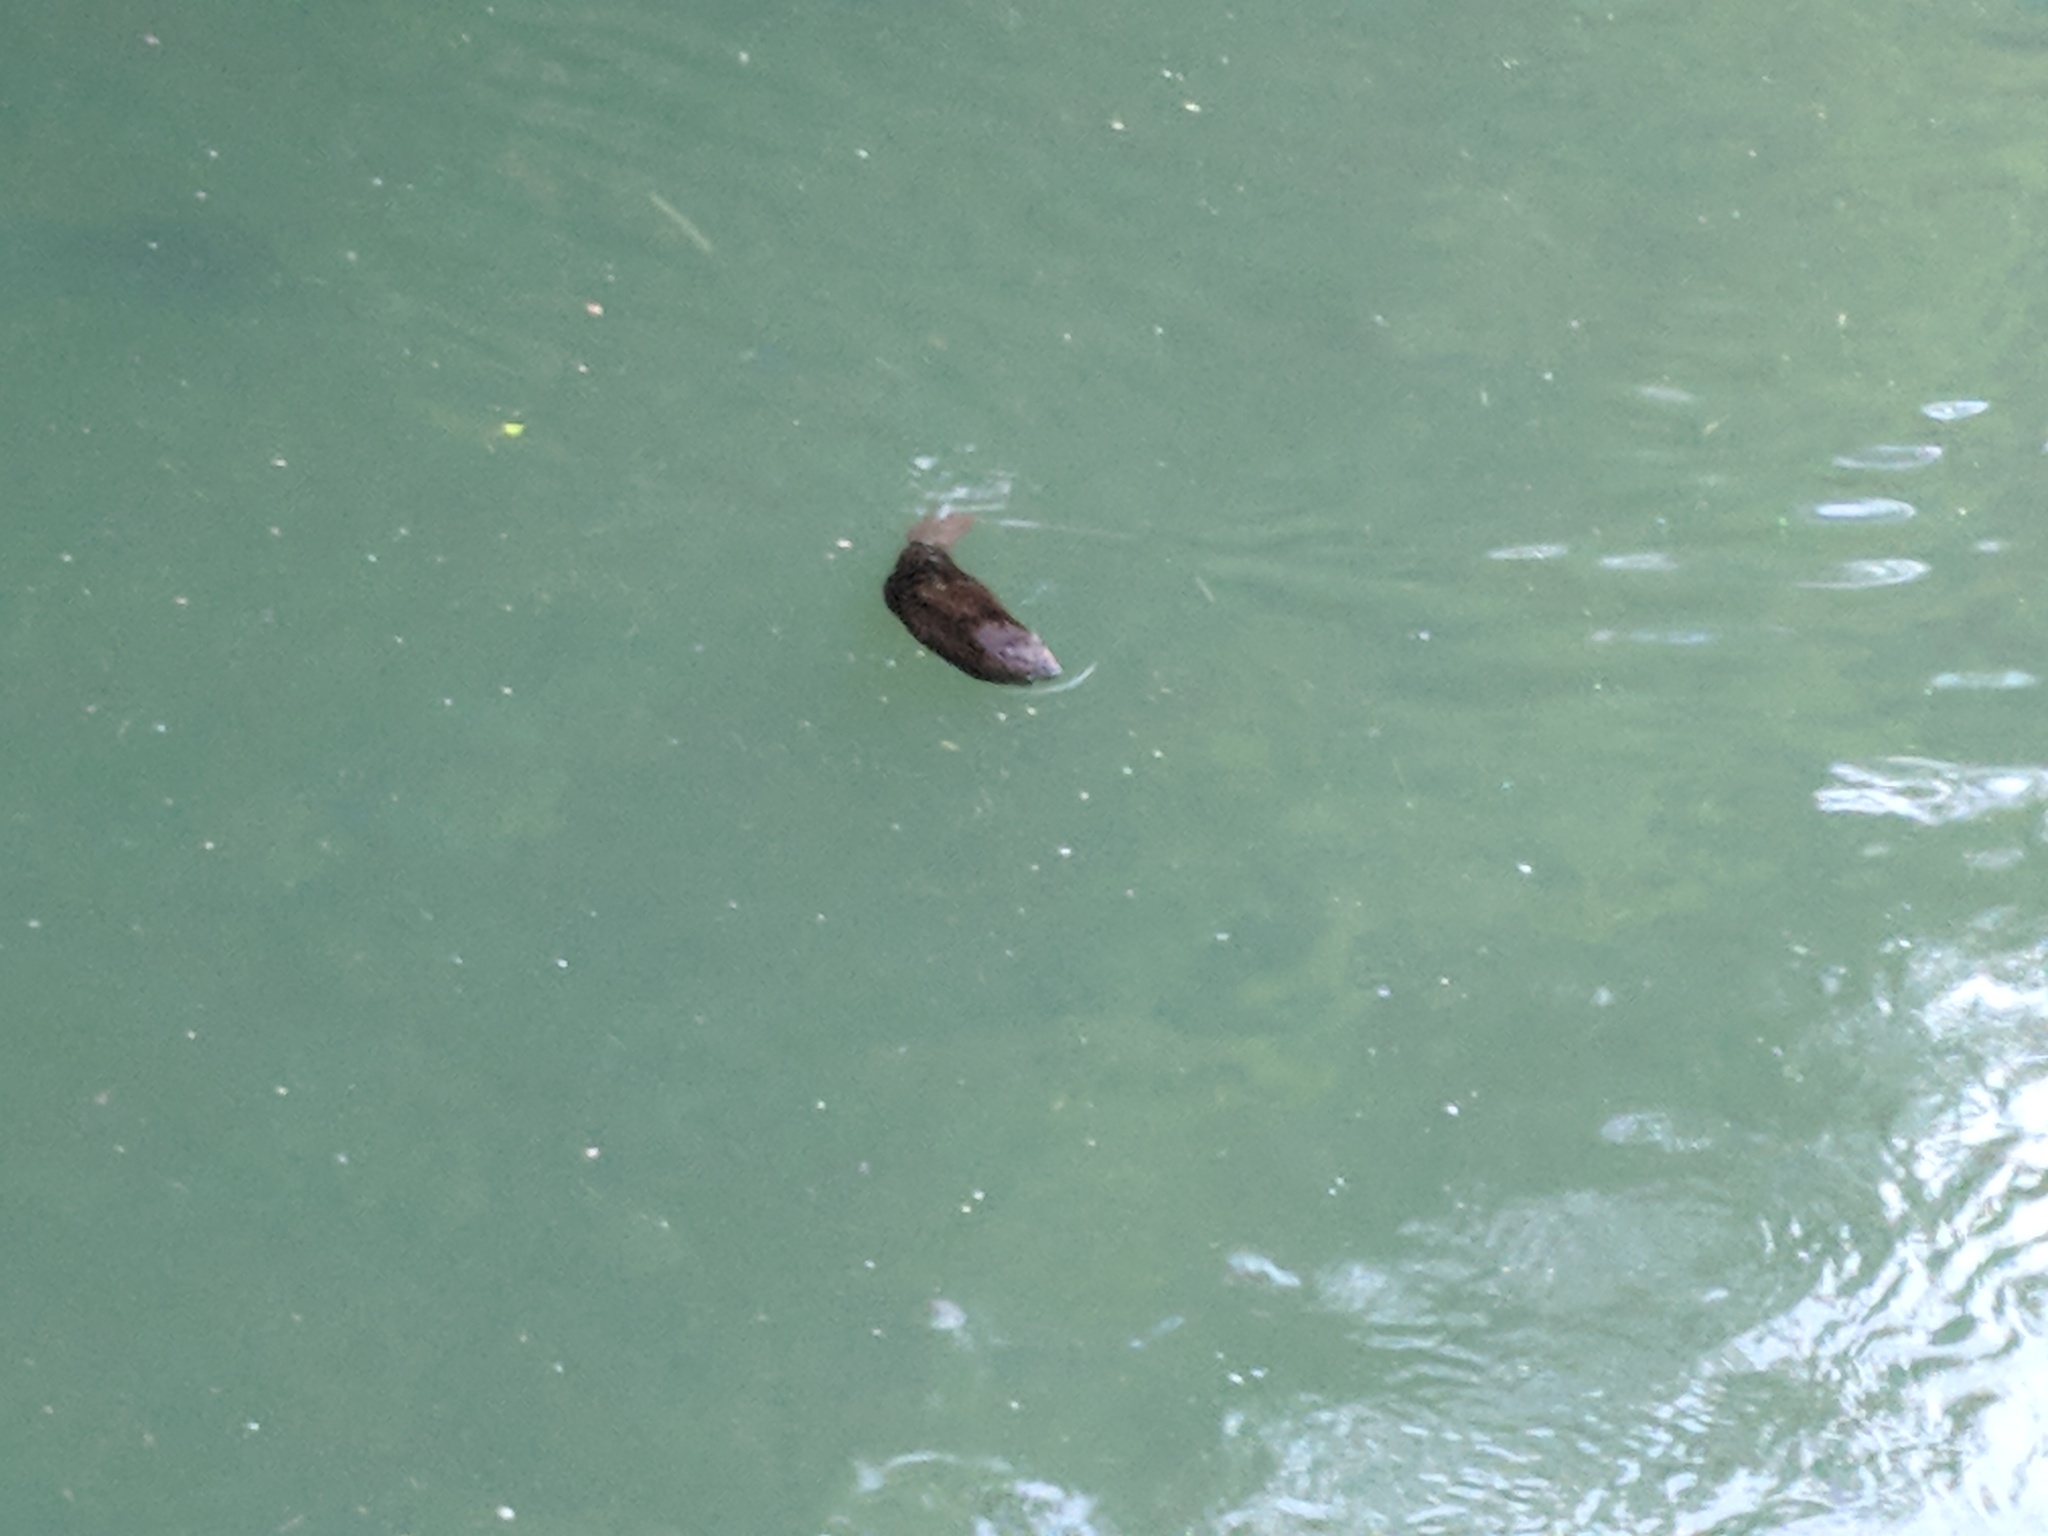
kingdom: Animalia
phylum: Chordata
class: Mammalia
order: Rodentia
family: Castoridae
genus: Castor
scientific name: Castor canadensis
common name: American beaver
